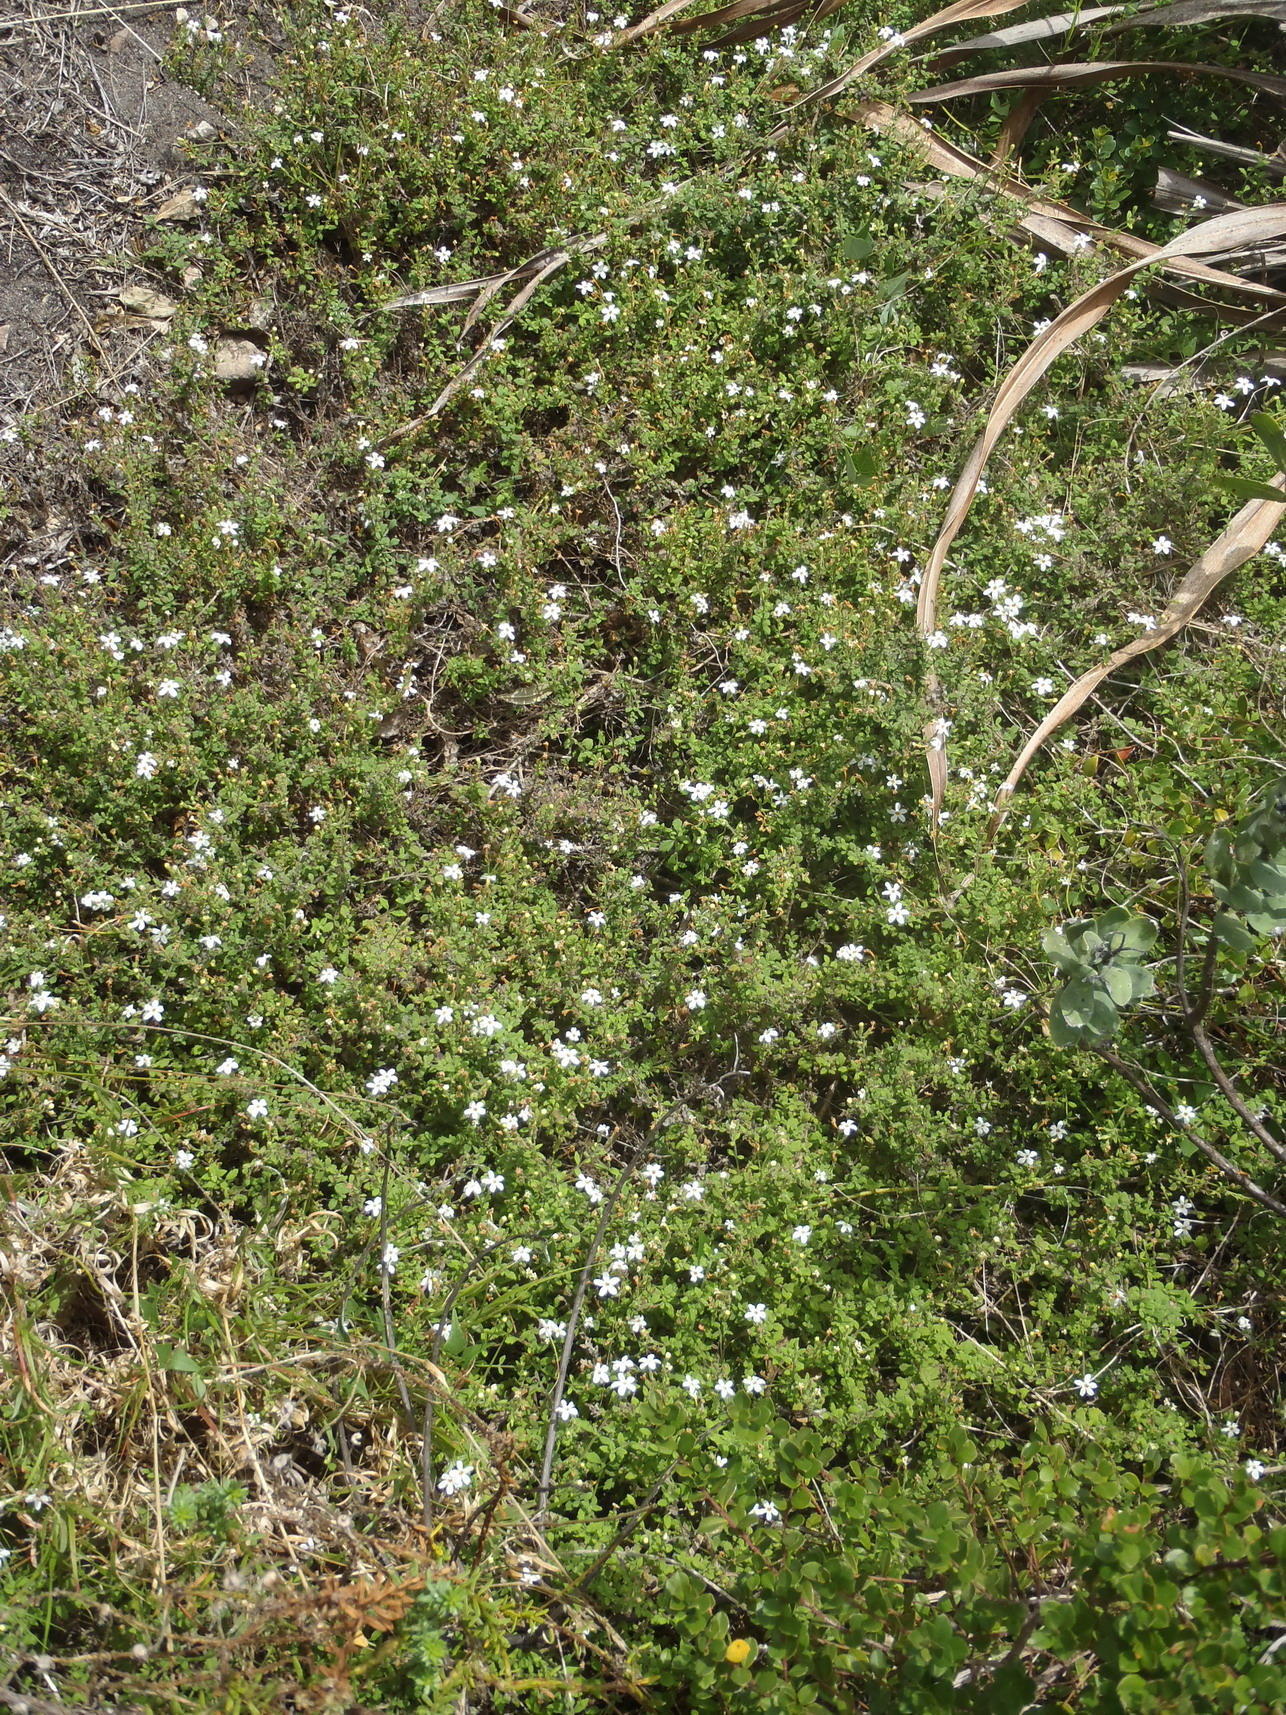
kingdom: Plantae
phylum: Tracheophyta
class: Magnoliopsida
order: Lamiales
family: Scrophulariaceae
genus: Chaenostoma
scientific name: Chaenostoma hispidum
